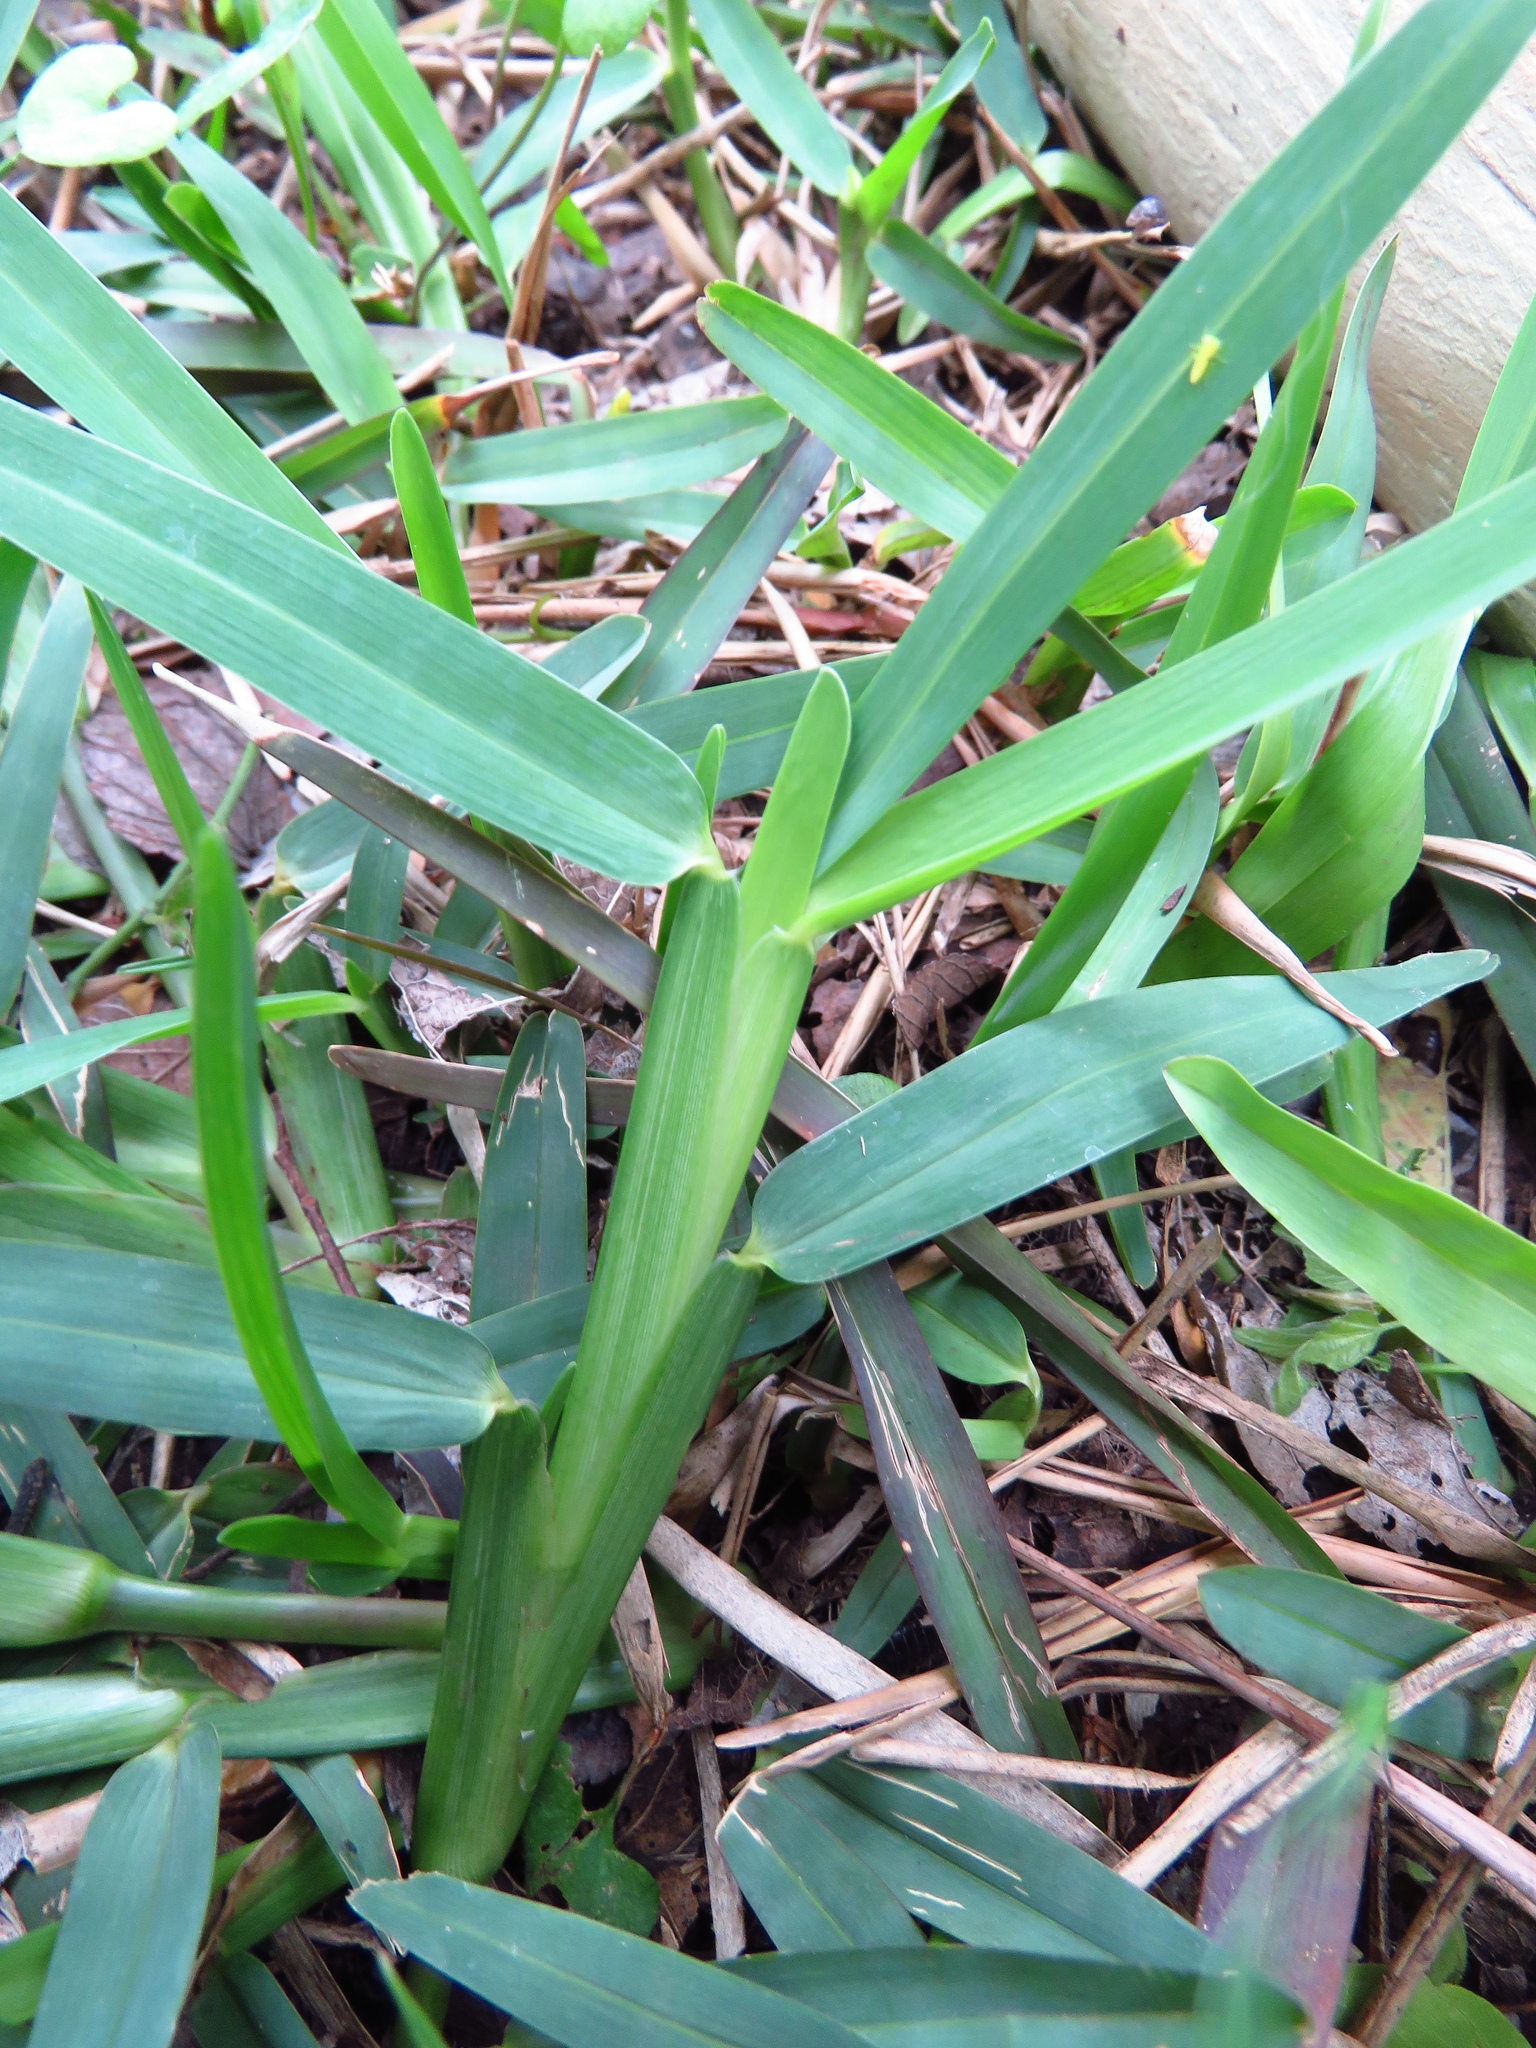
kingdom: Plantae
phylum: Tracheophyta
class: Liliopsida
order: Poales
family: Poaceae
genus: Stenotaphrum
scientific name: Stenotaphrum secundatum
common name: St. augustine grass
